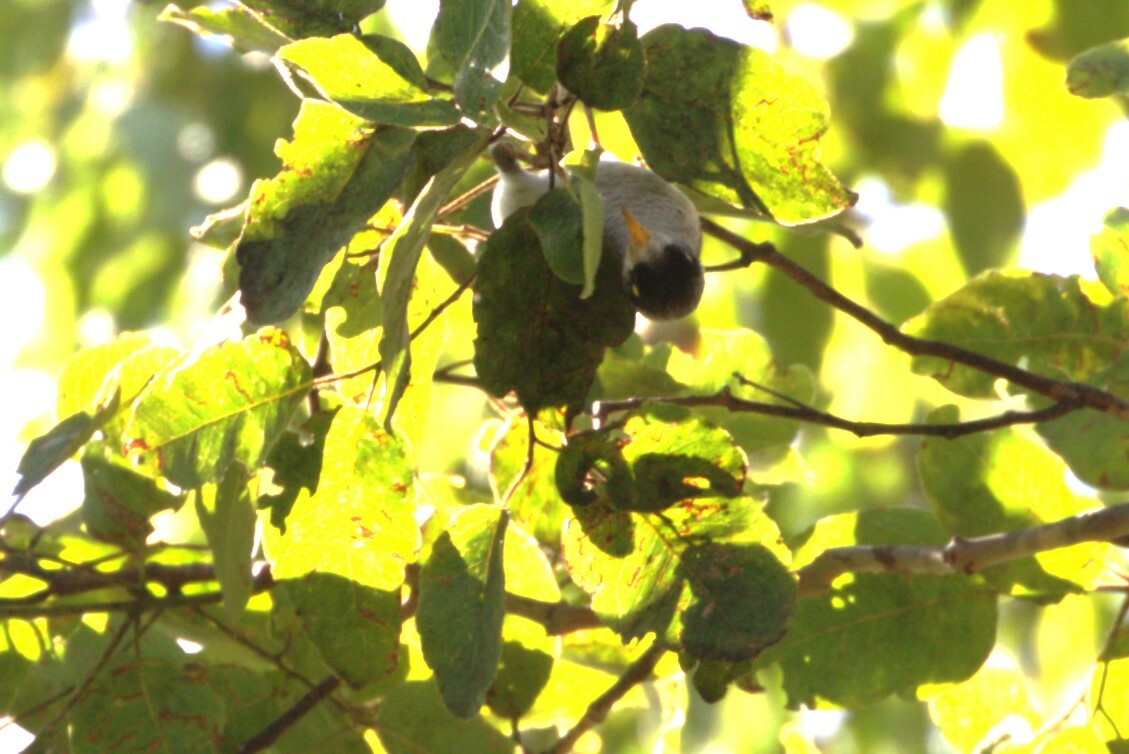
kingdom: Animalia
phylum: Chordata
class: Aves
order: Passeriformes
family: Meliphagidae
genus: Manorina
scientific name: Manorina melanocephala
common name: Noisy miner
